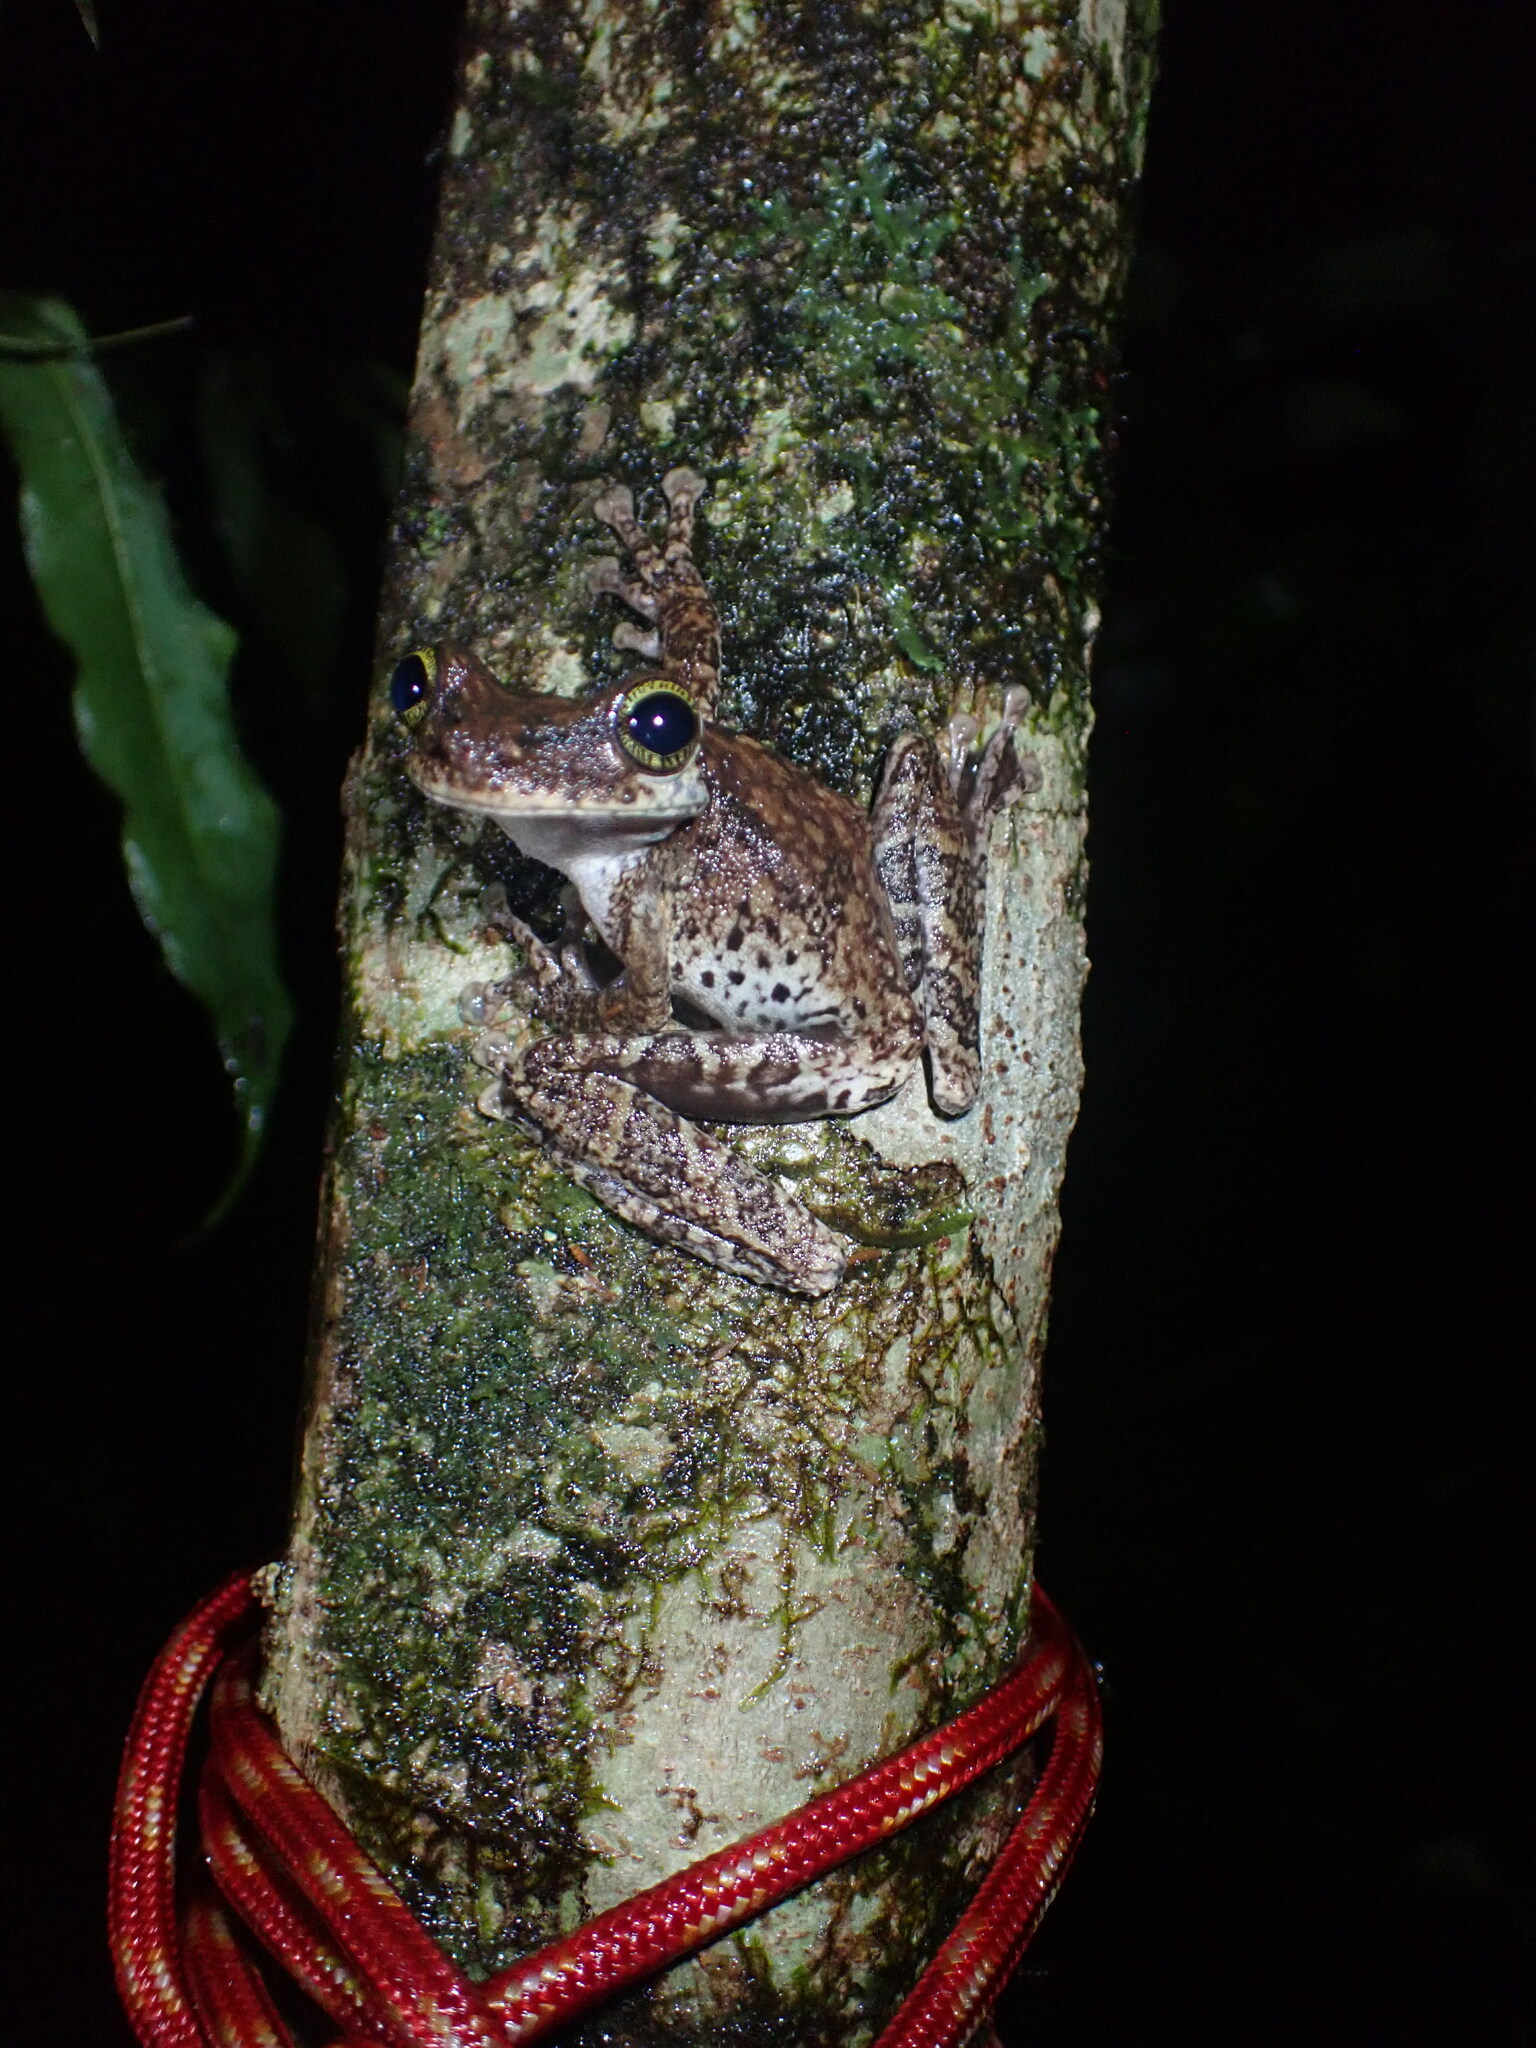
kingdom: Animalia
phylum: Chordata
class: Amphibia
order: Anura
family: Hylidae
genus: Osteocephalus
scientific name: Osteocephalus taurinus
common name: Manaus slender-legged treefrog
